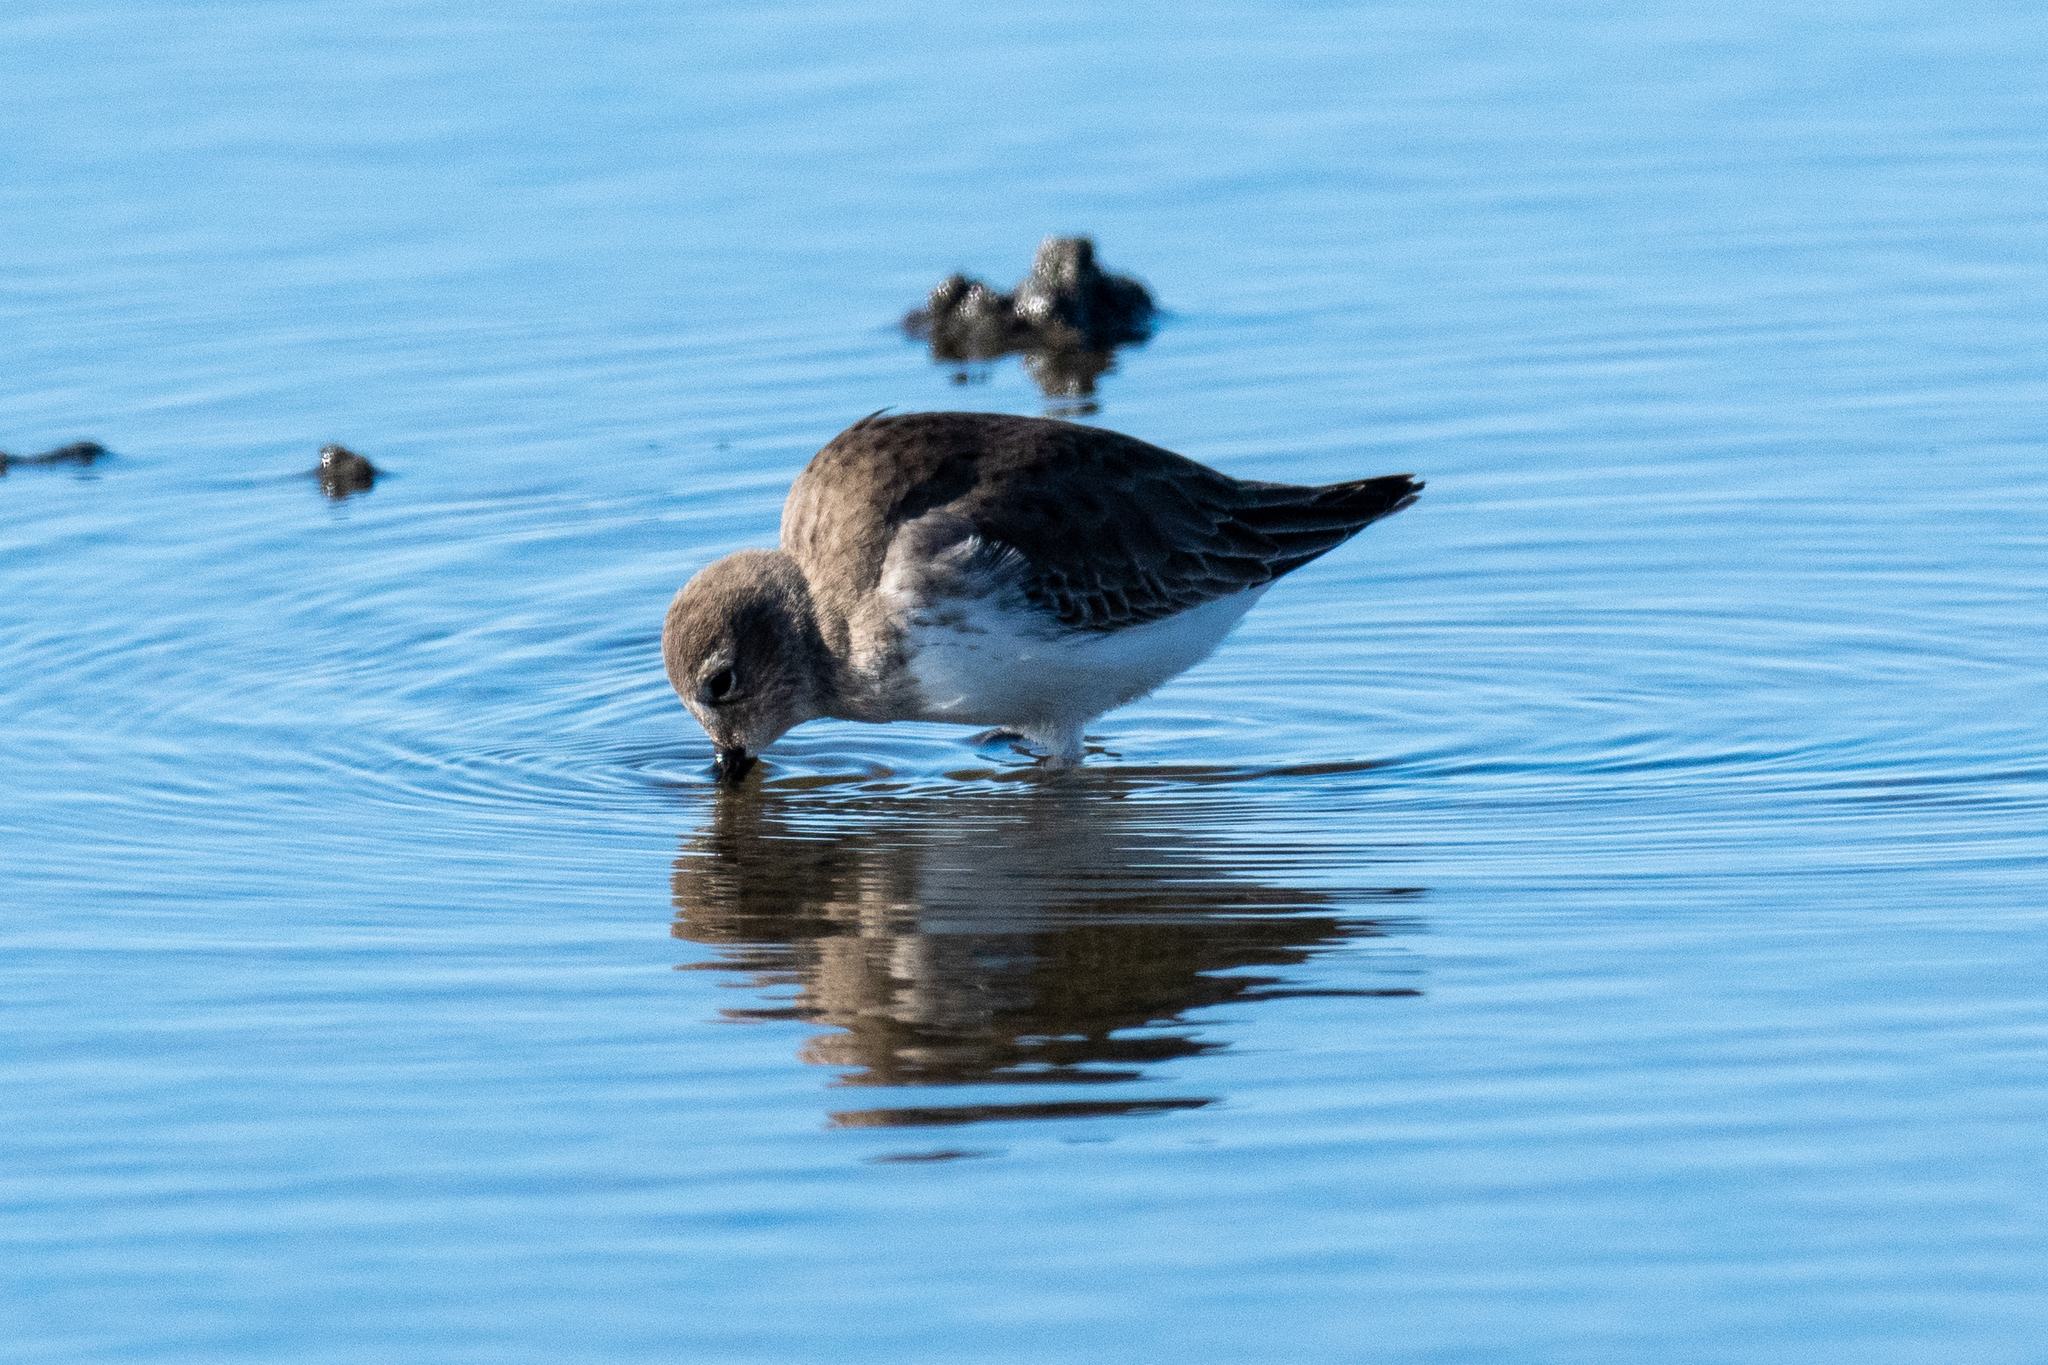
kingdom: Animalia
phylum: Chordata
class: Aves
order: Charadriiformes
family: Scolopacidae
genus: Calidris
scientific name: Calidris alpina
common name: Dunlin
